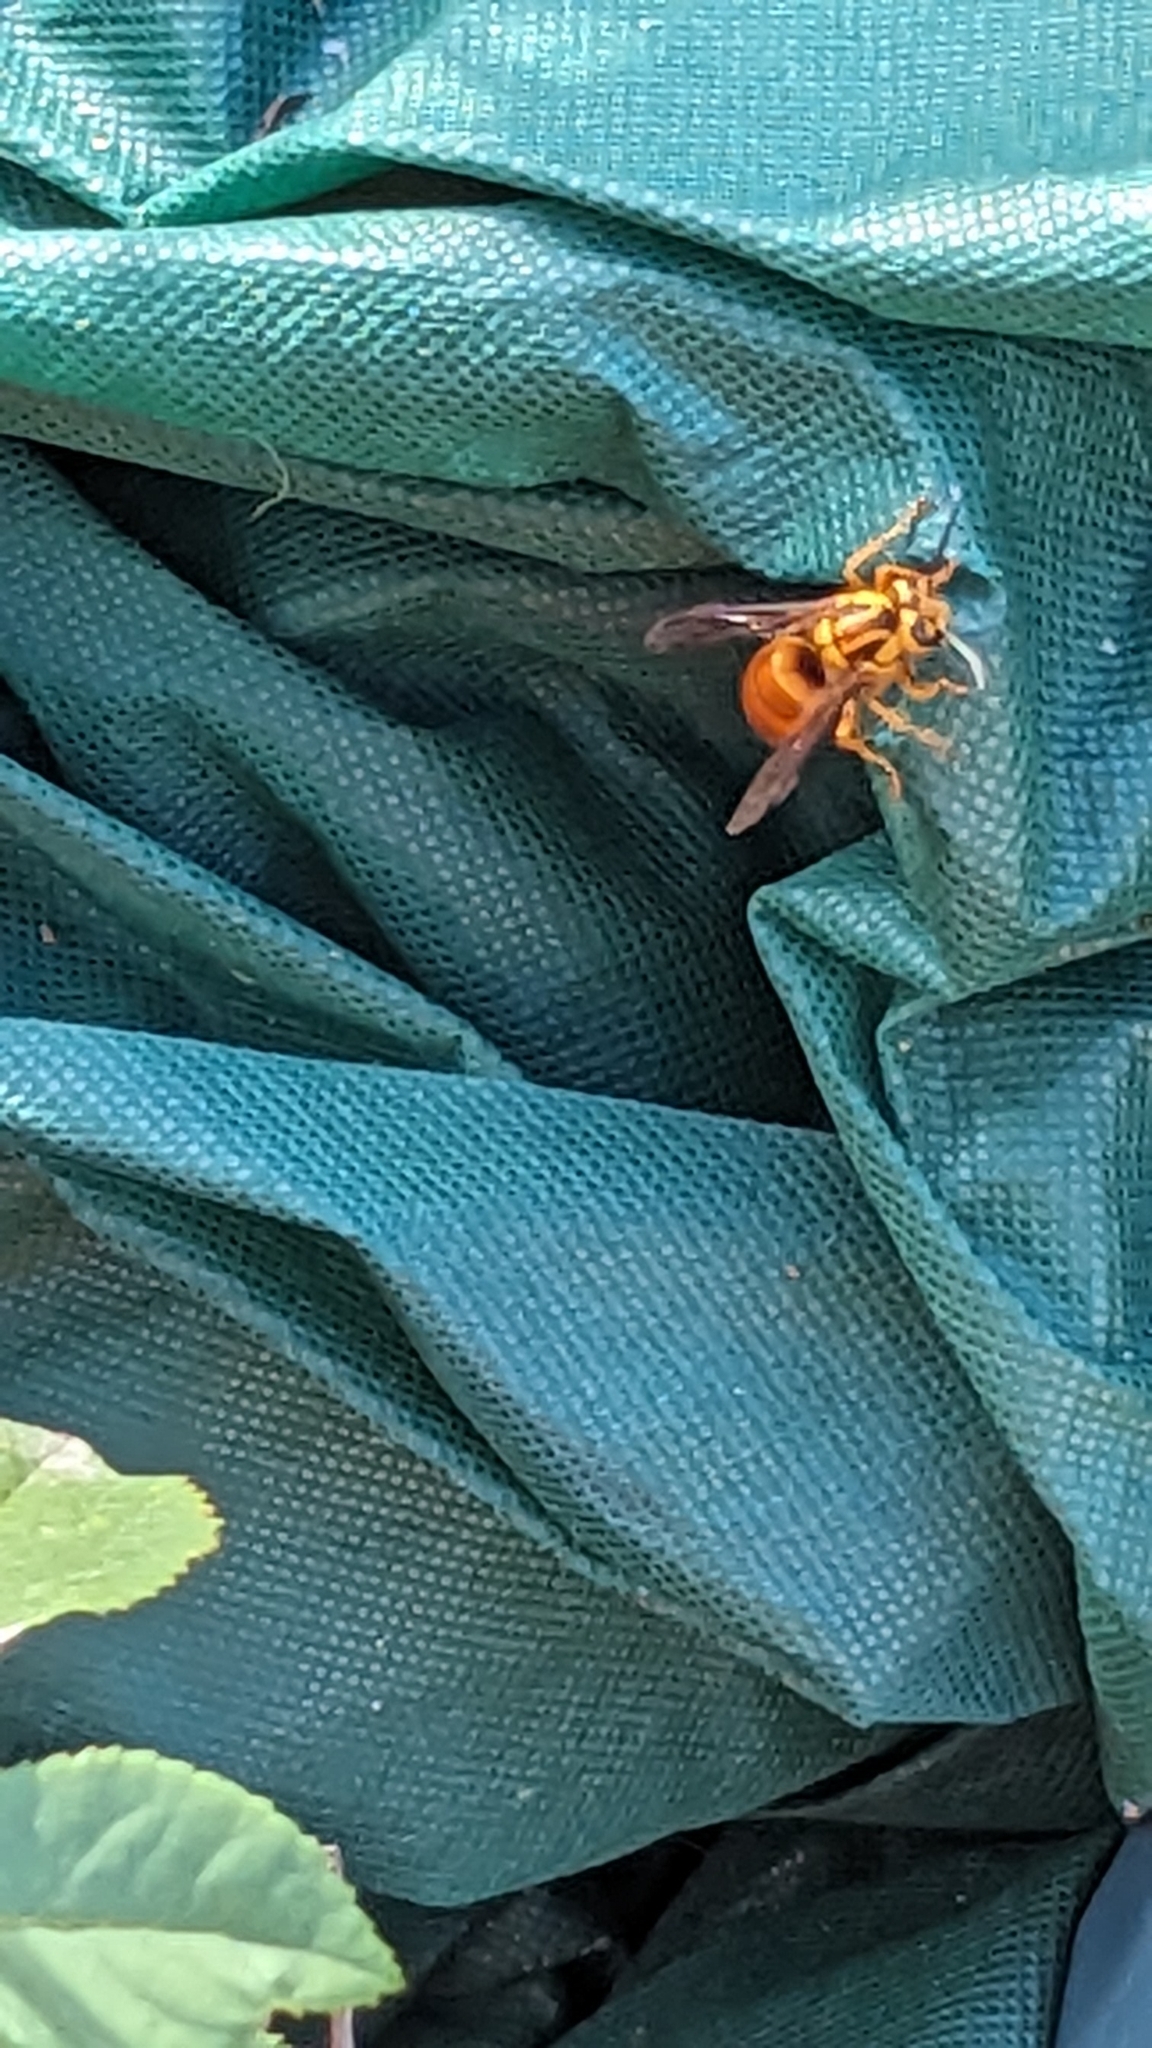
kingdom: Animalia
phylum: Arthropoda
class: Insecta
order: Hymenoptera
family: Vespidae
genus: Vespula
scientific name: Vespula squamosa
